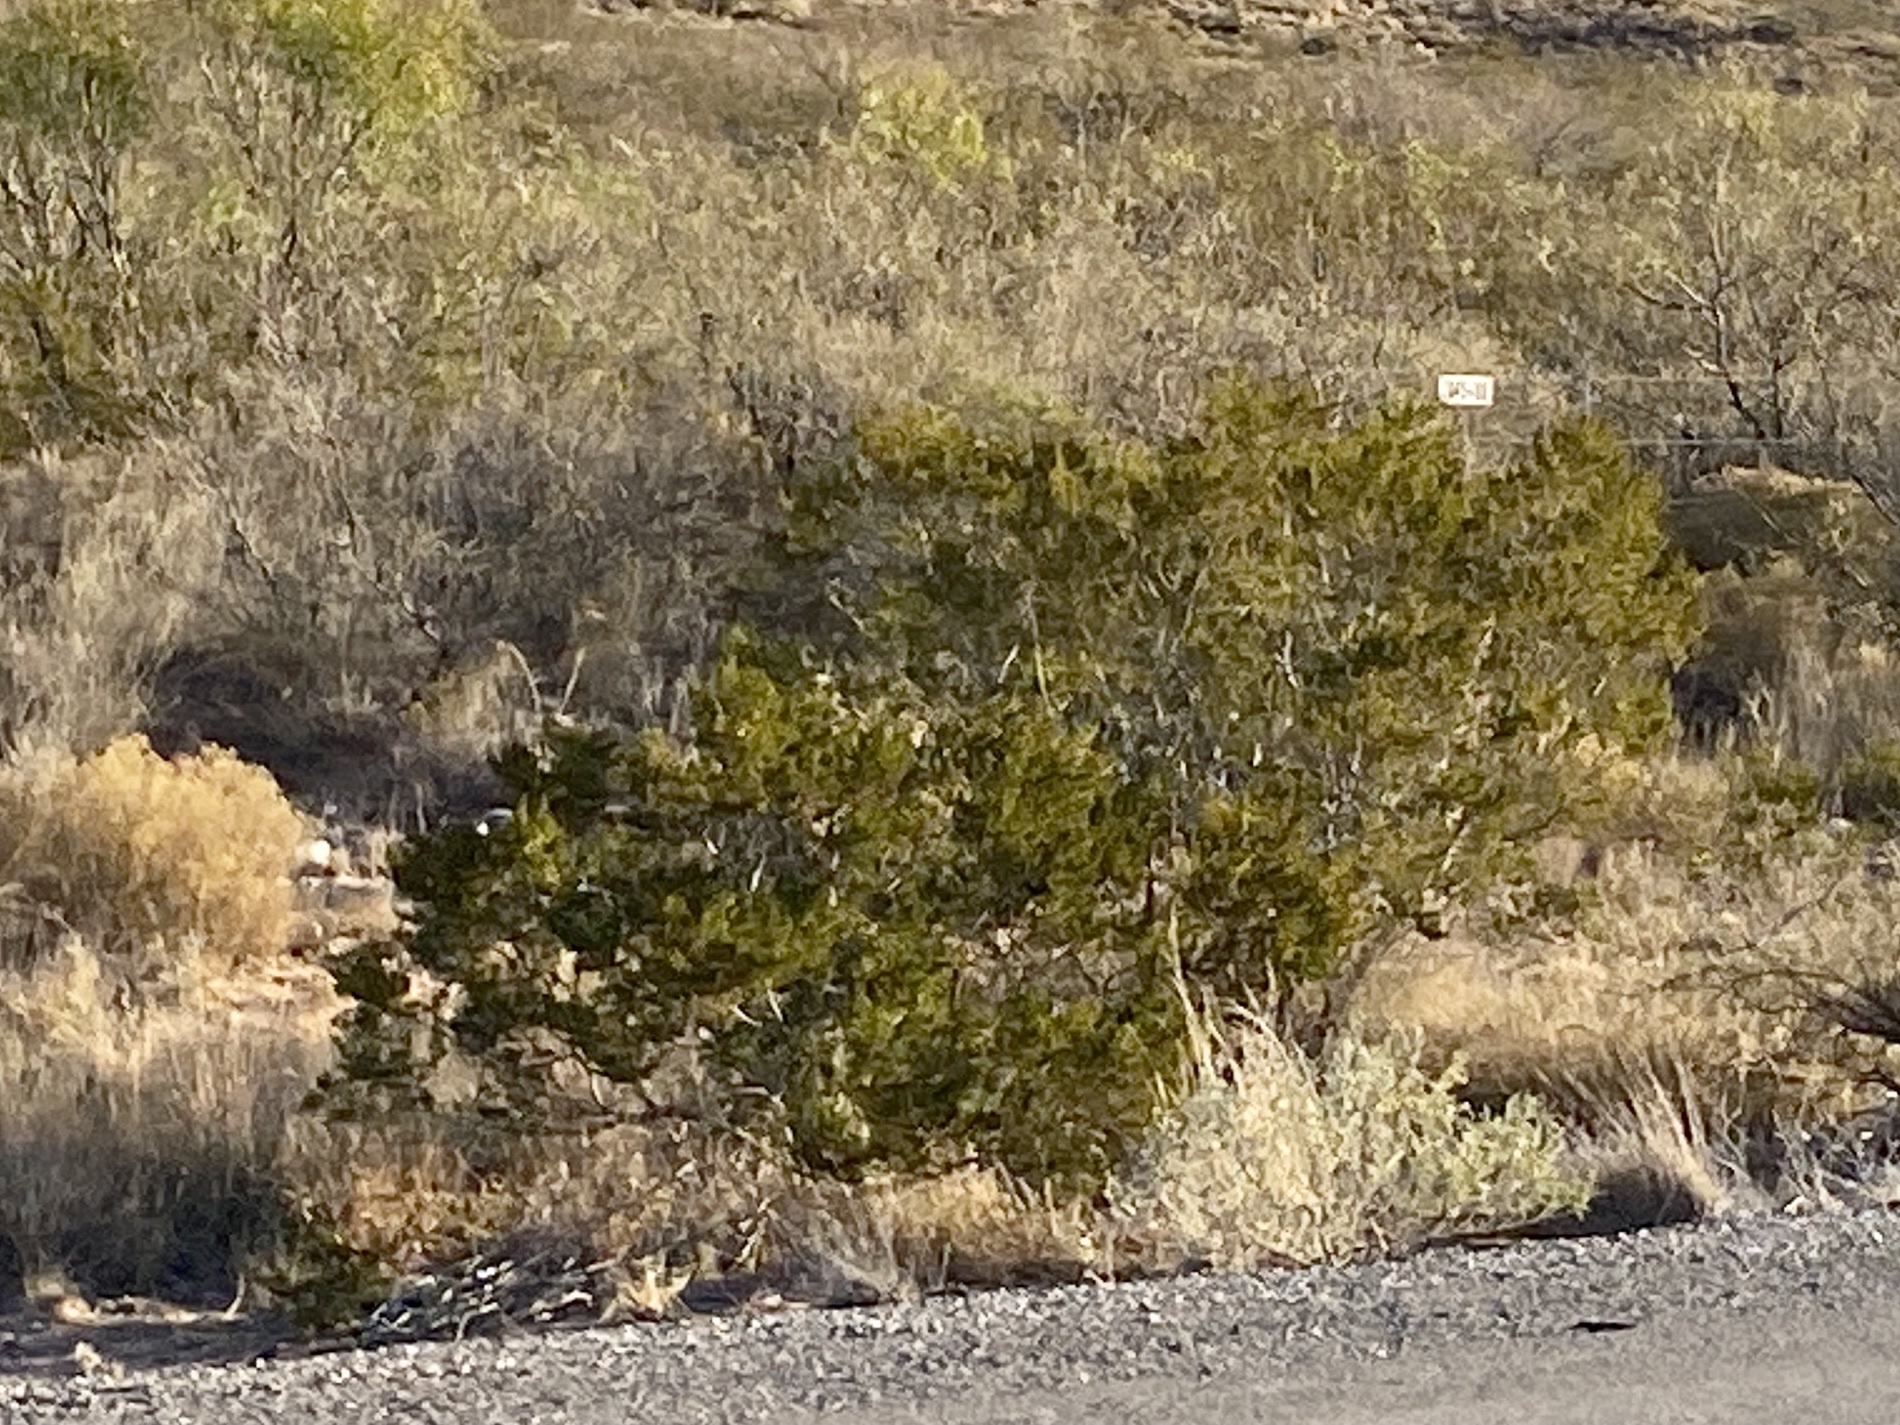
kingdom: Plantae
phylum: Tracheophyta
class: Magnoliopsida
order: Zygophyllales
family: Zygophyllaceae
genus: Larrea
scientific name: Larrea tridentata
